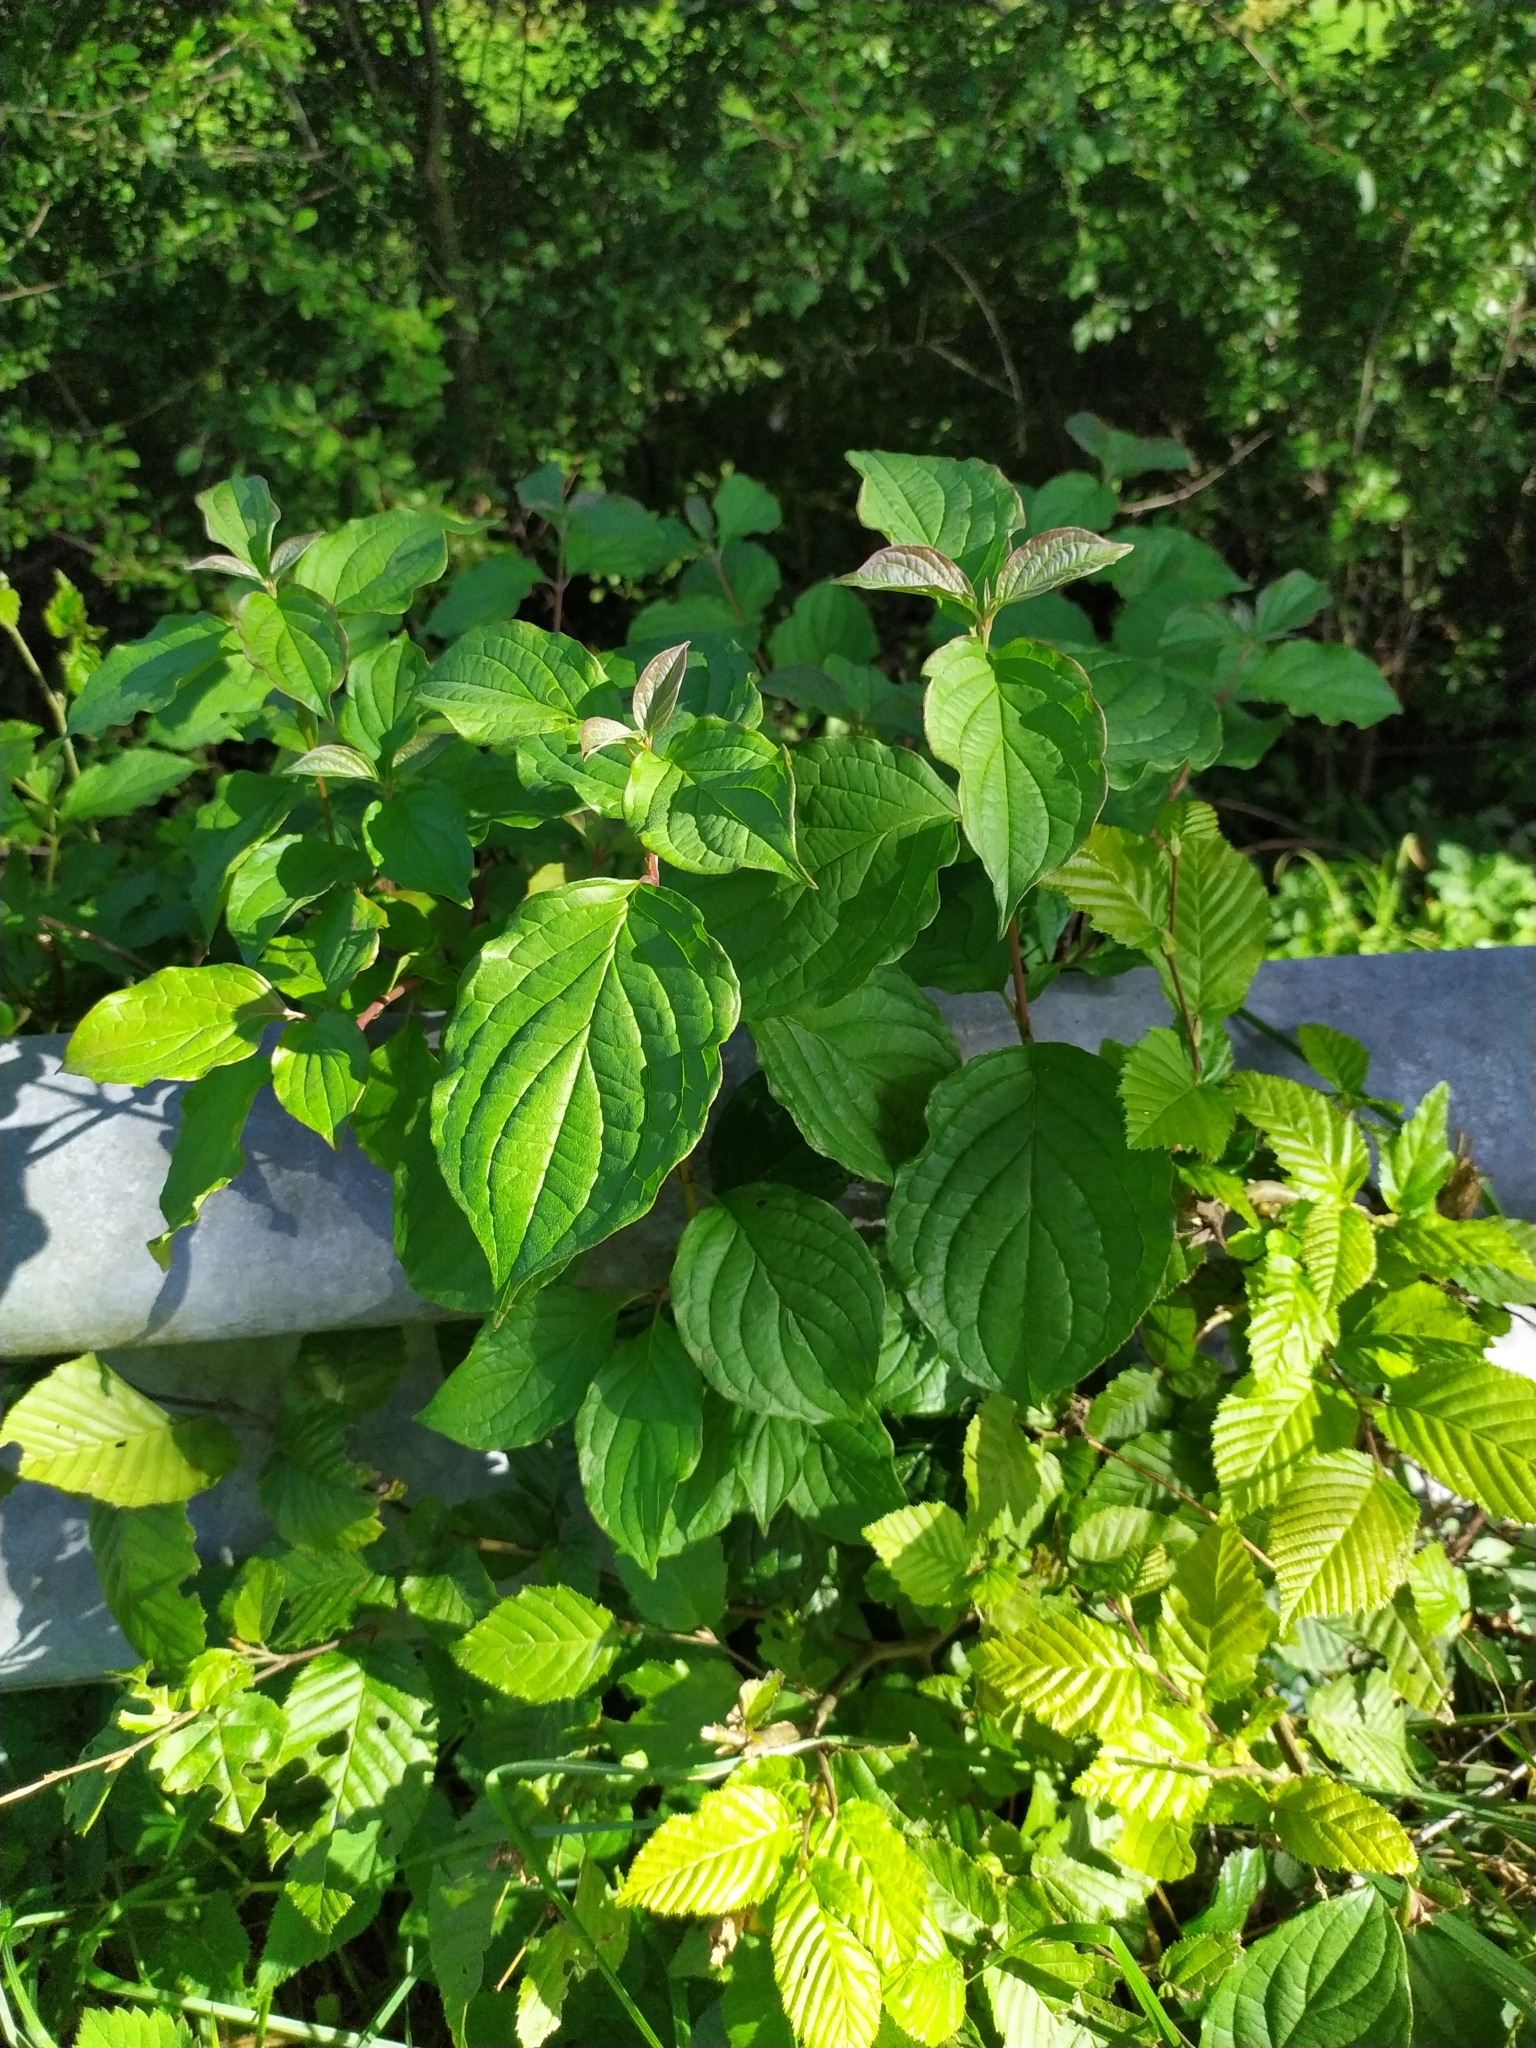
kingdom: Plantae
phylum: Tracheophyta
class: Magnoliopsida
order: Cornales
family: Cornaceae
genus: Cornus
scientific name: Cornus sanguinea
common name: Dogwood
